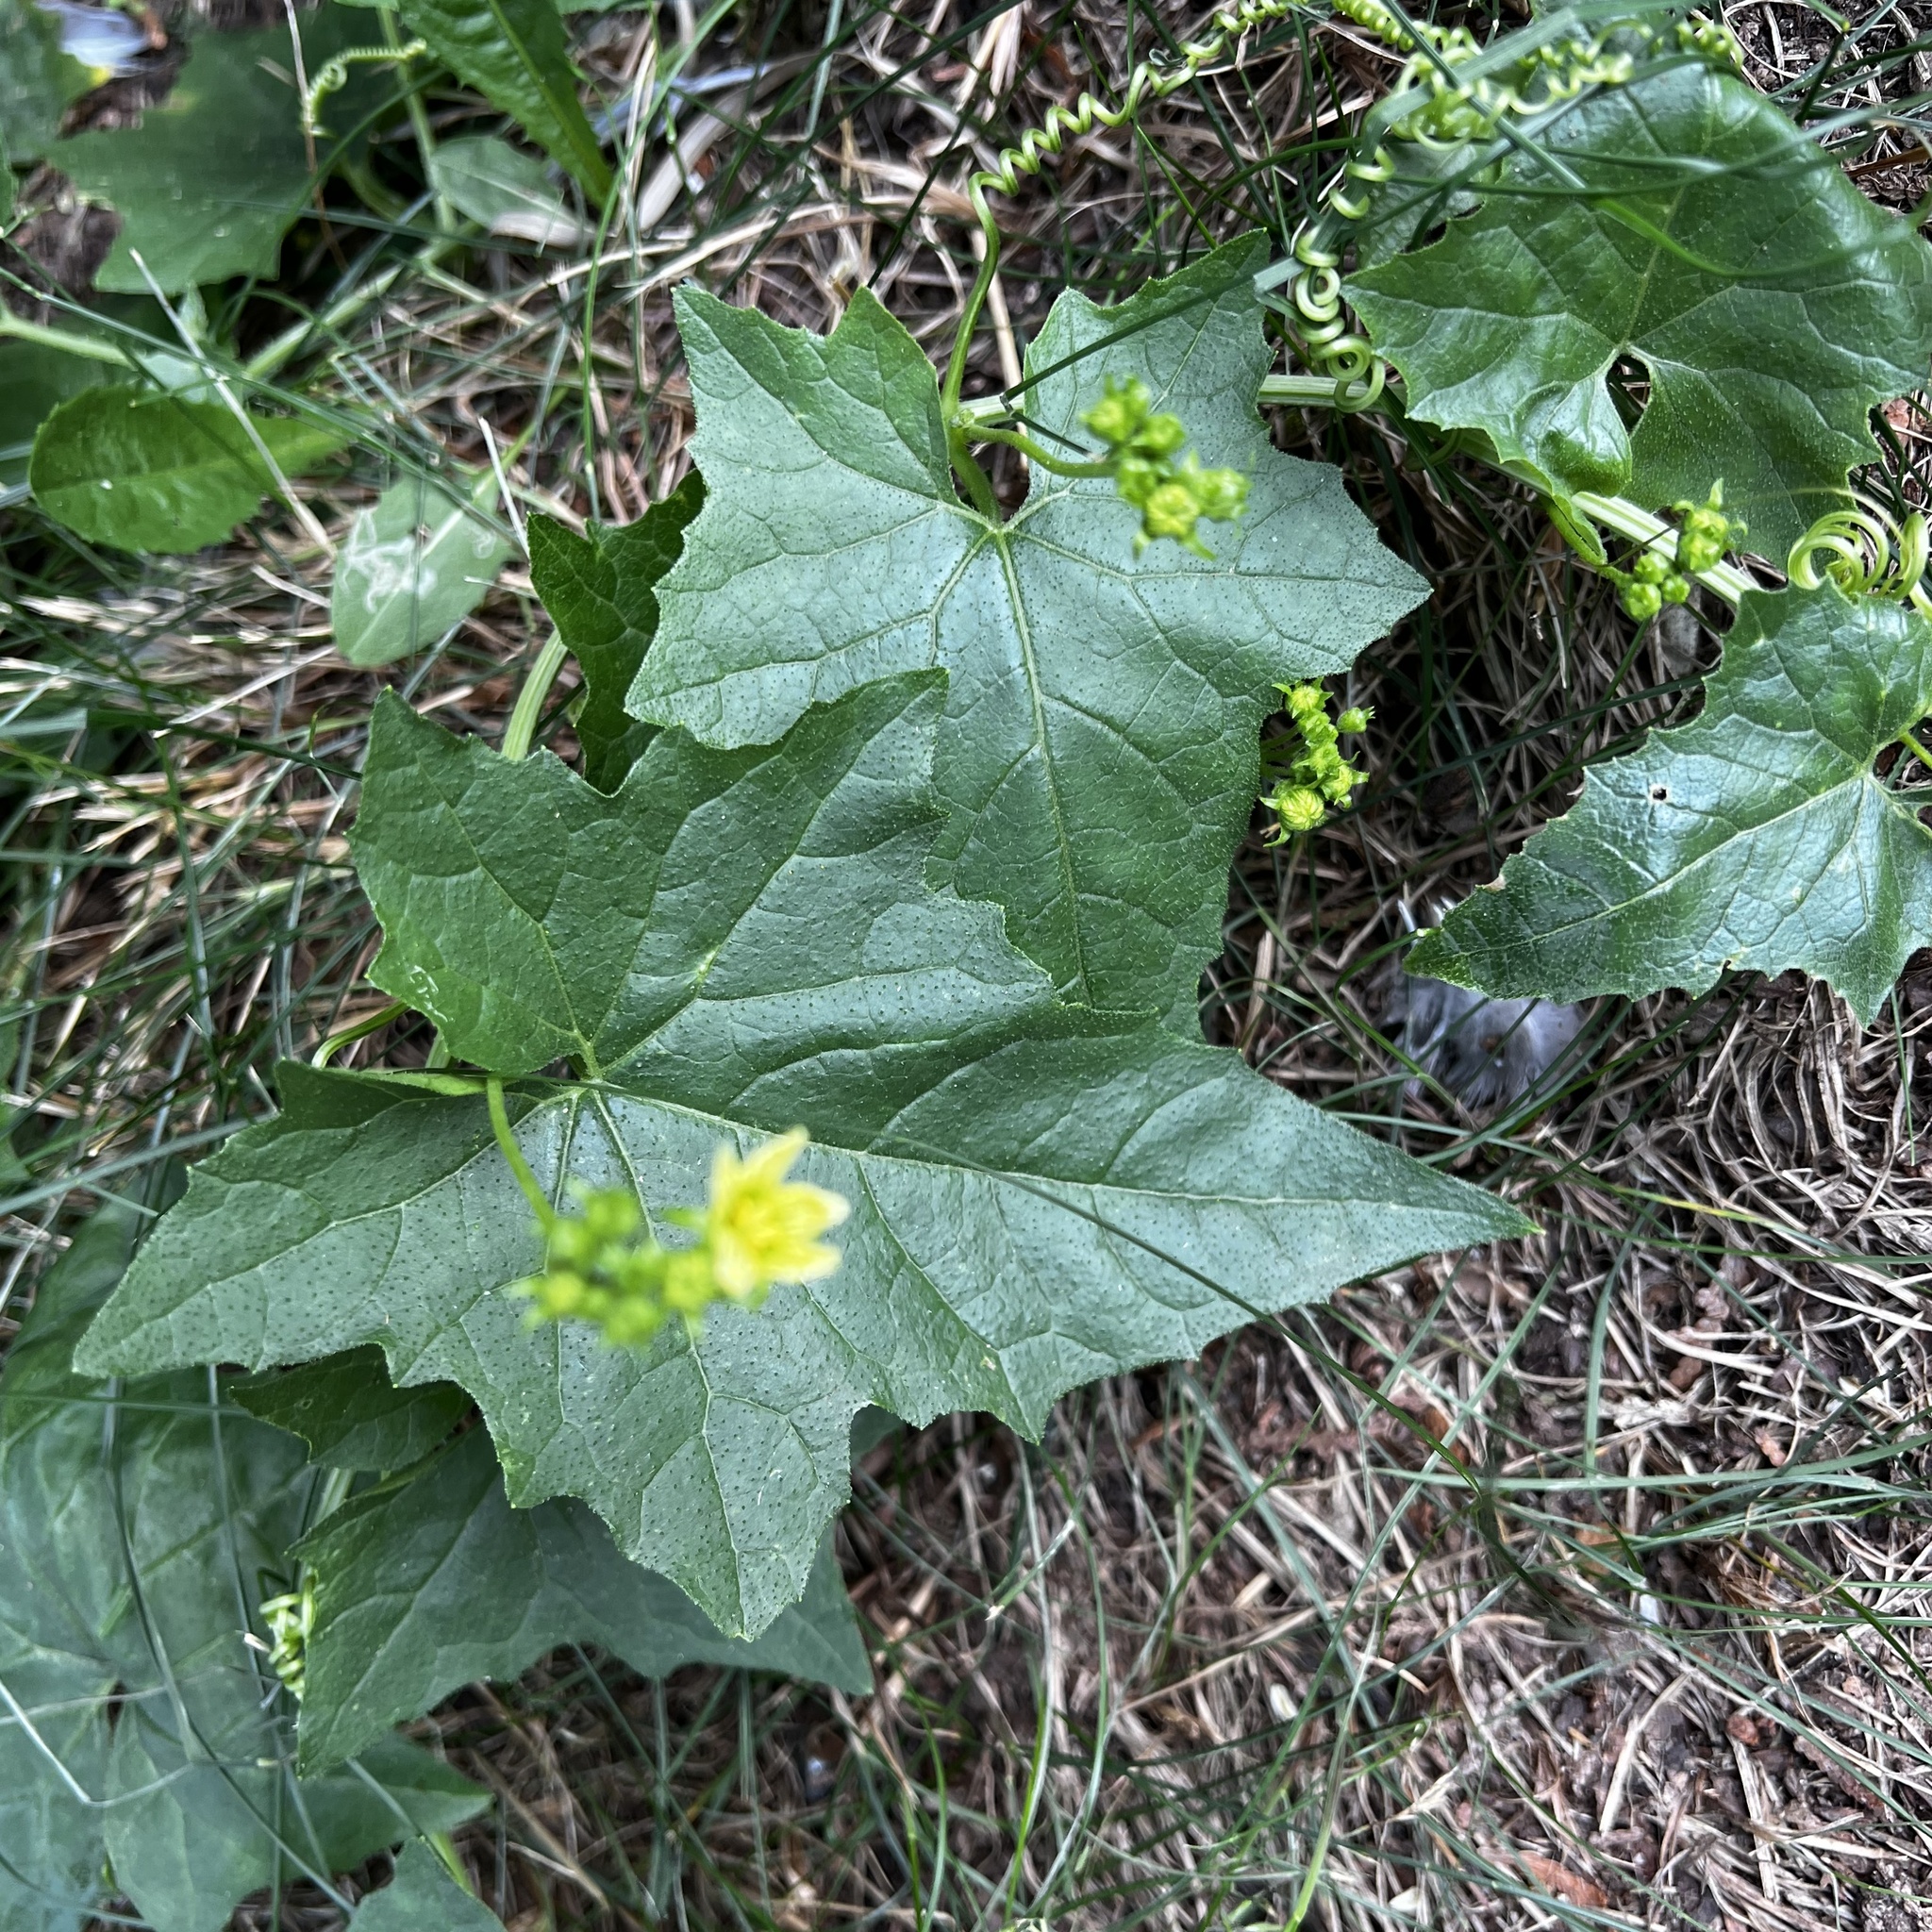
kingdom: Plantae
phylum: Tracheophyta
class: Magnoliopsida
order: Cucurbitales
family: Cucurbitaceae
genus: Bryonia
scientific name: Bryonia alba
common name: White bryony
